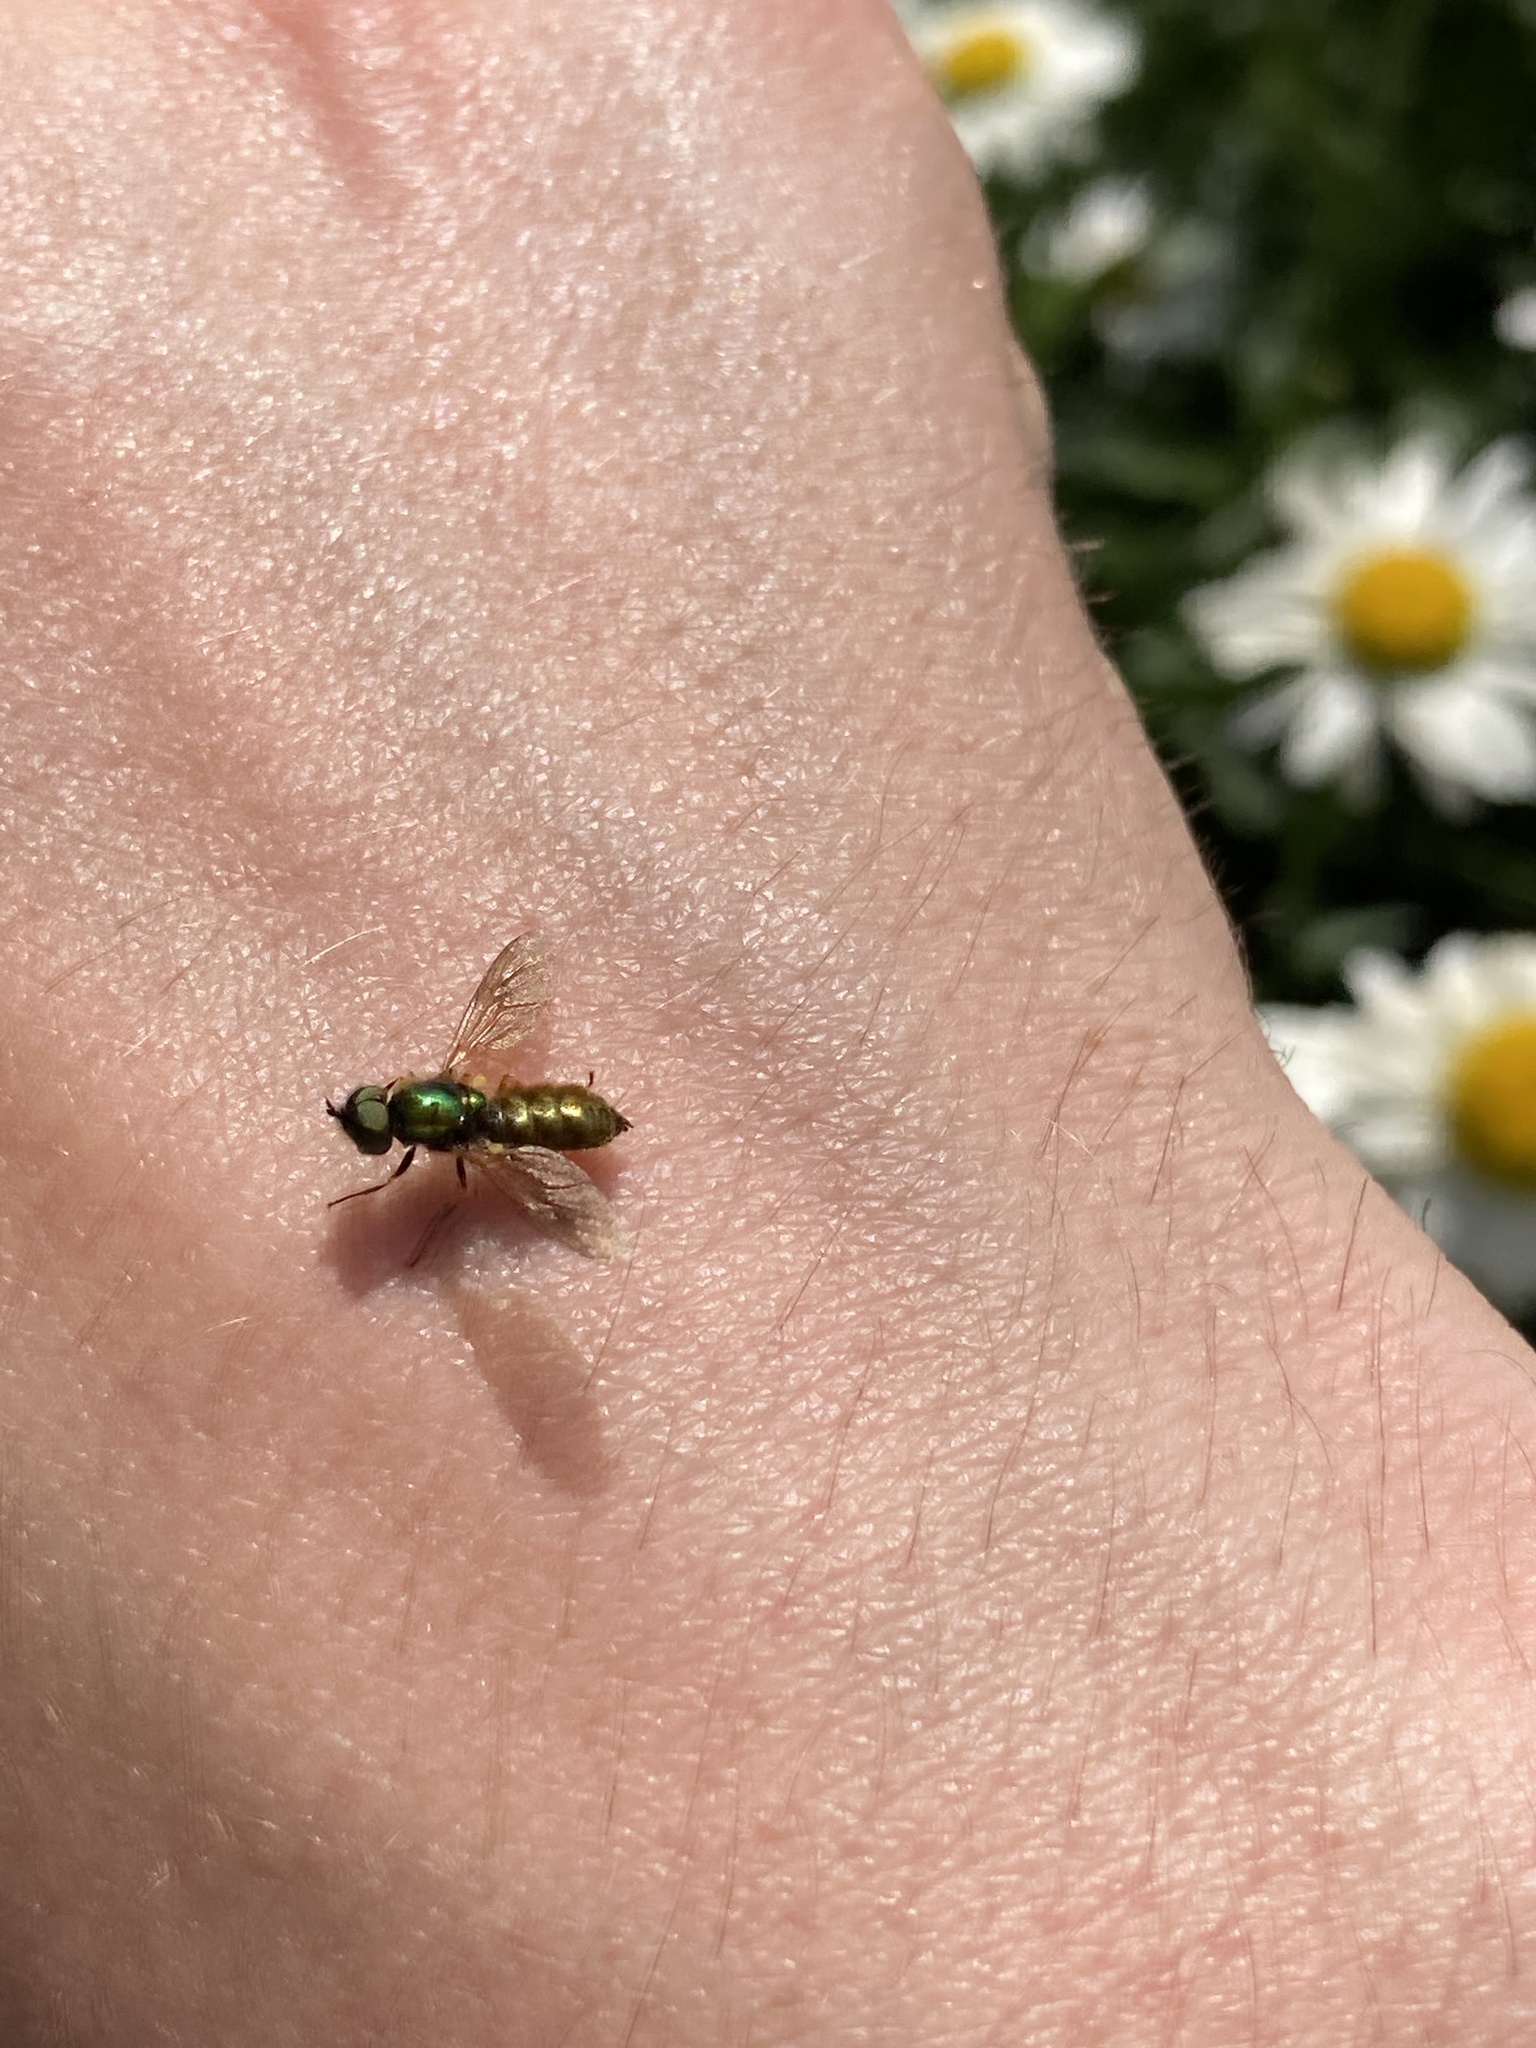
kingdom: Animalia
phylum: Arthropoda
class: Insecta
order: Diptera
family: Stratiomyidae
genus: Chloromyia
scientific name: Chloromyia formosa
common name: Soldier fly
